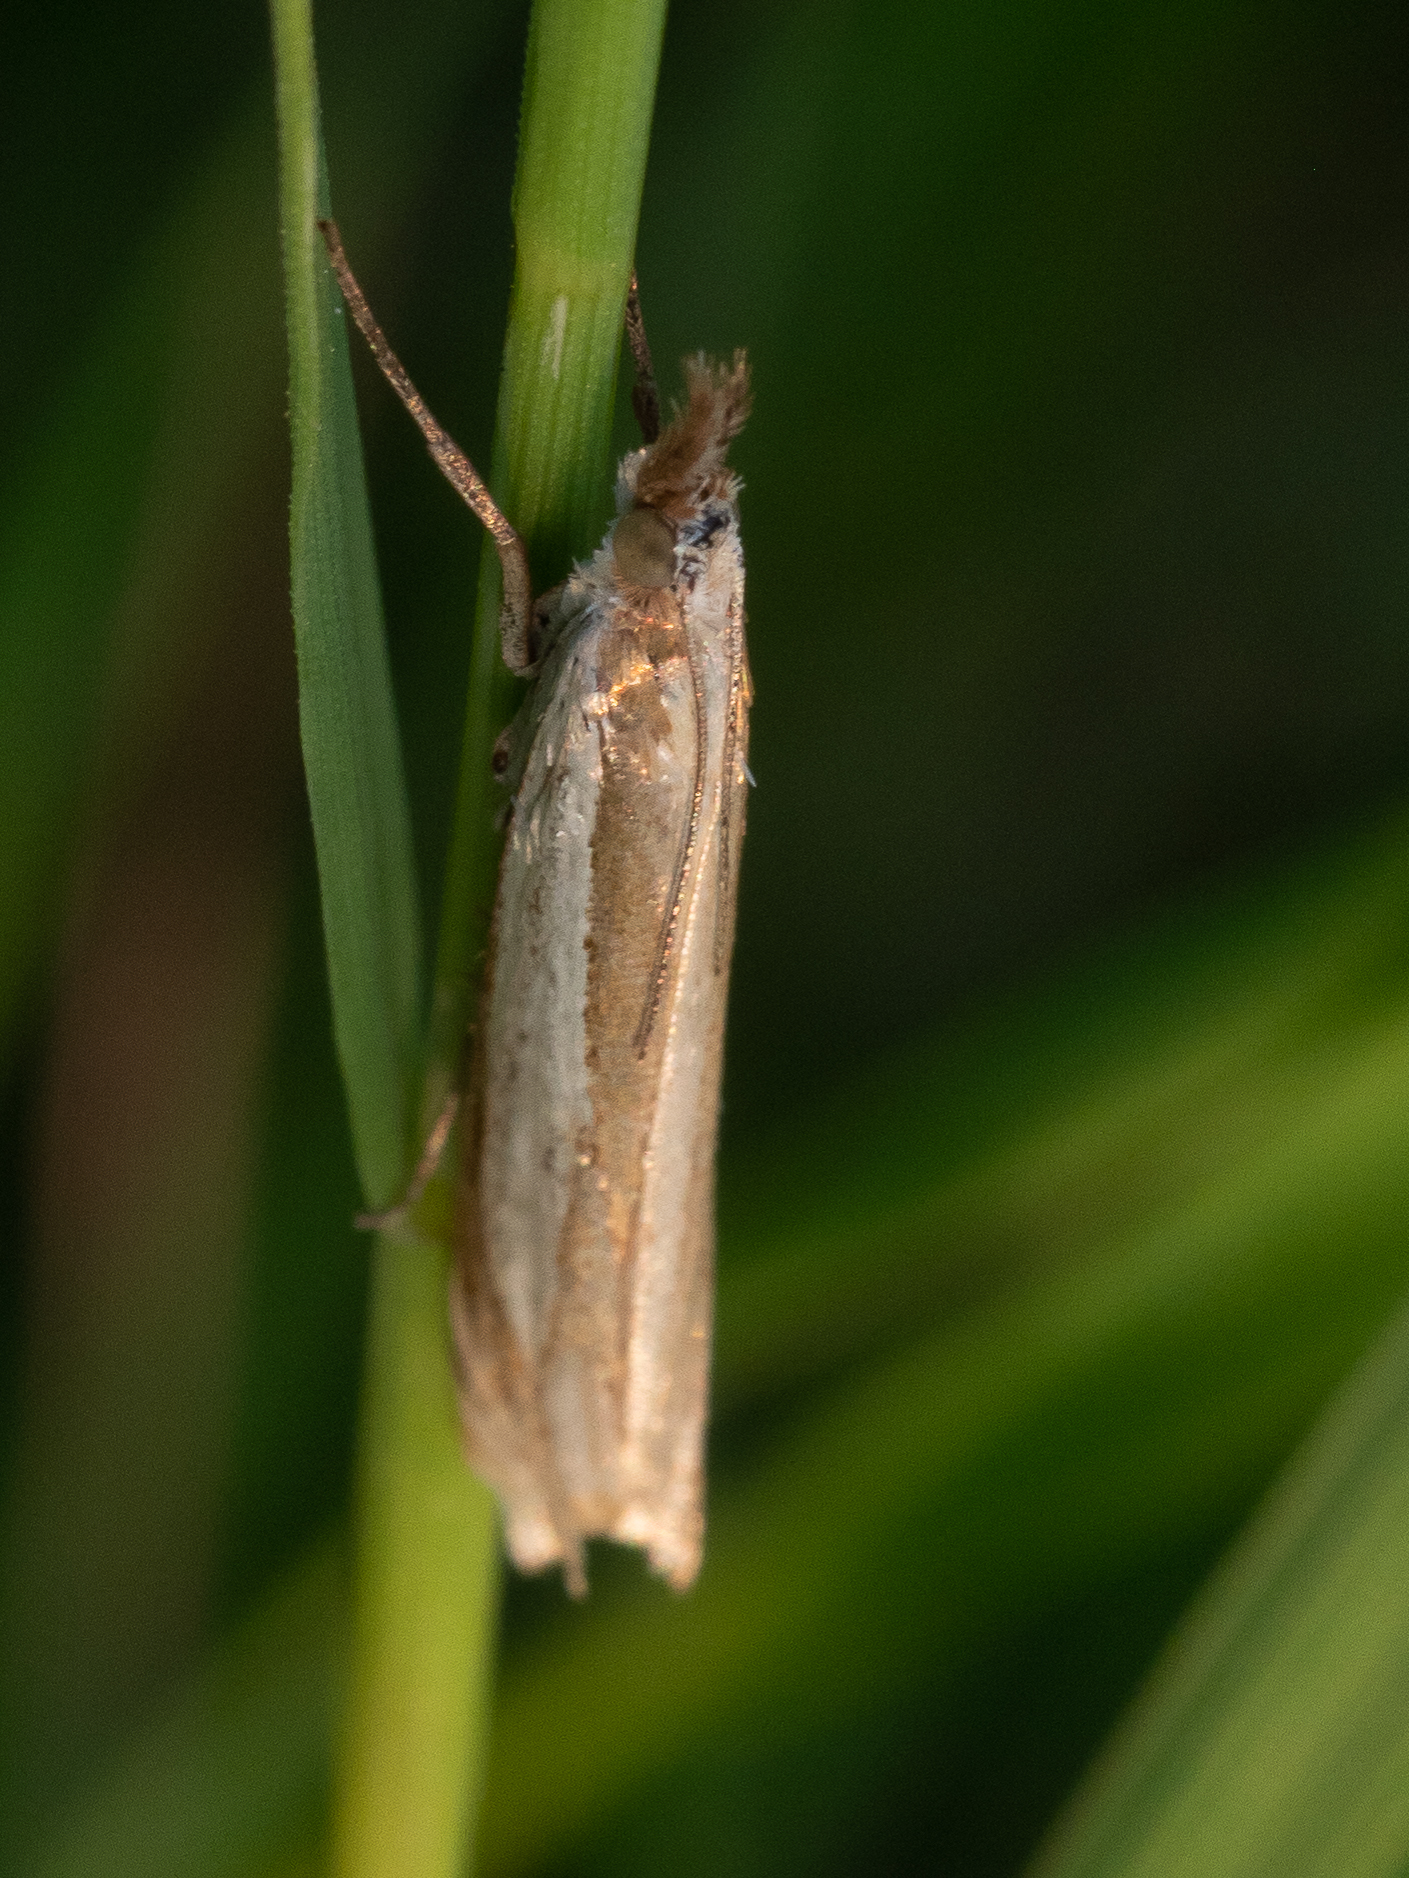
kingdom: Animalia
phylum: Arthropoda
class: Insecta
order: Lepidoptera
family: Crambidae
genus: Crambus
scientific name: Crambus pascuella
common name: Inlaid grass-veneer
